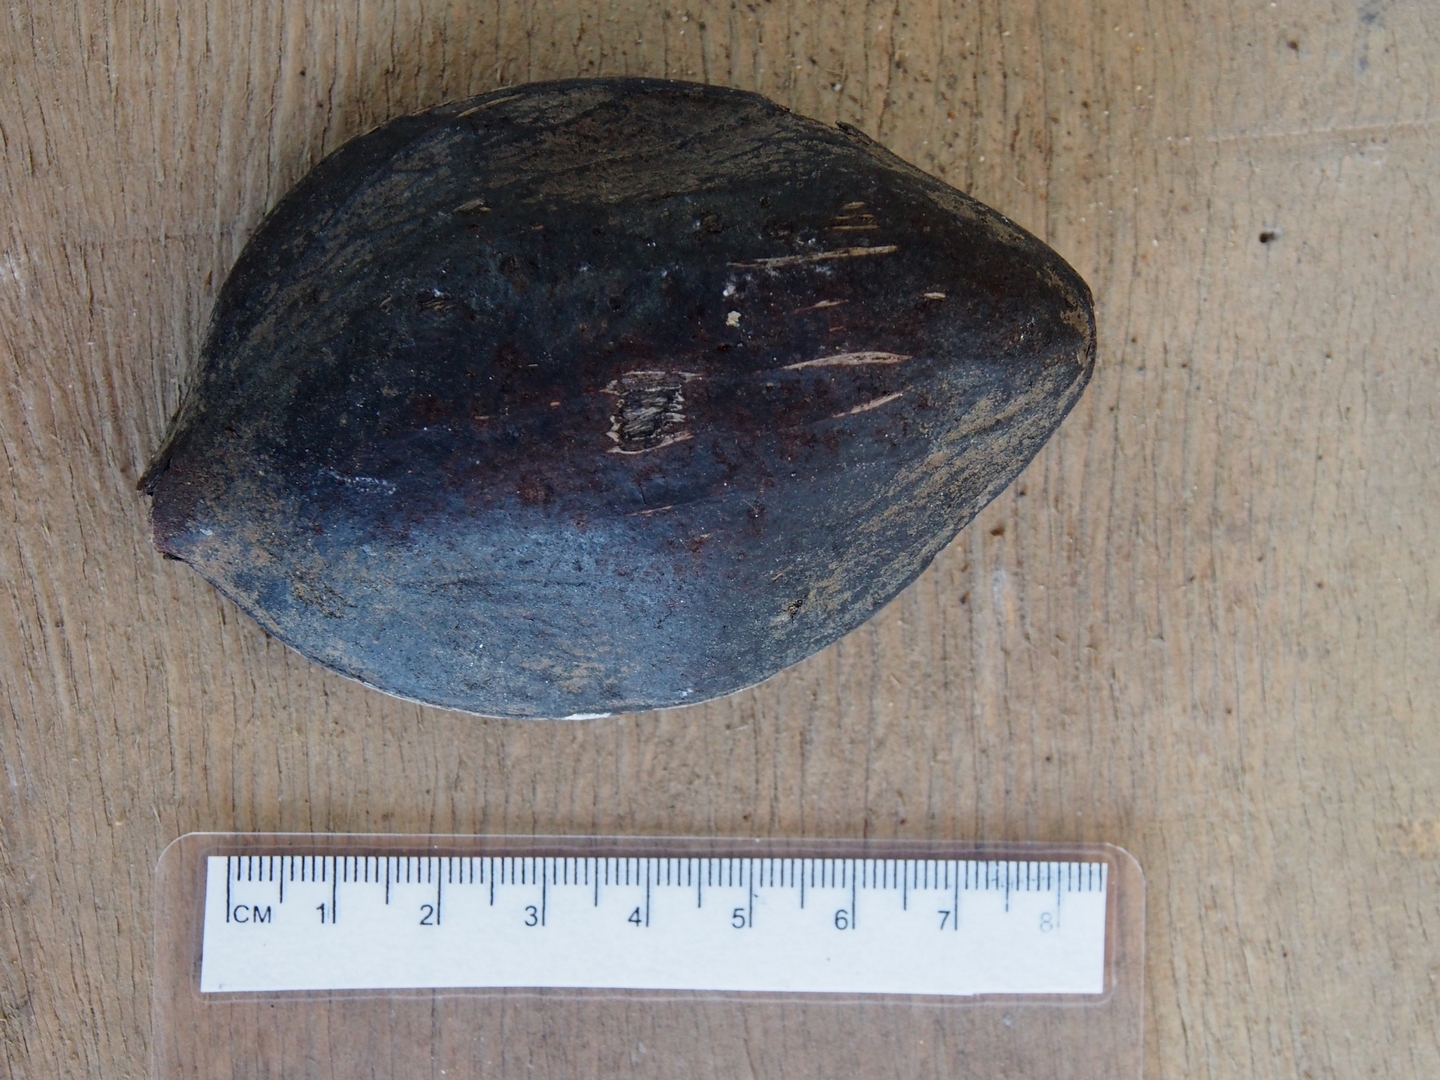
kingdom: Plantae
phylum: Tracheophyta
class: Magnoliopsida
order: Fabales
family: Fabaceae
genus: Prioria
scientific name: Prioria copaifera
